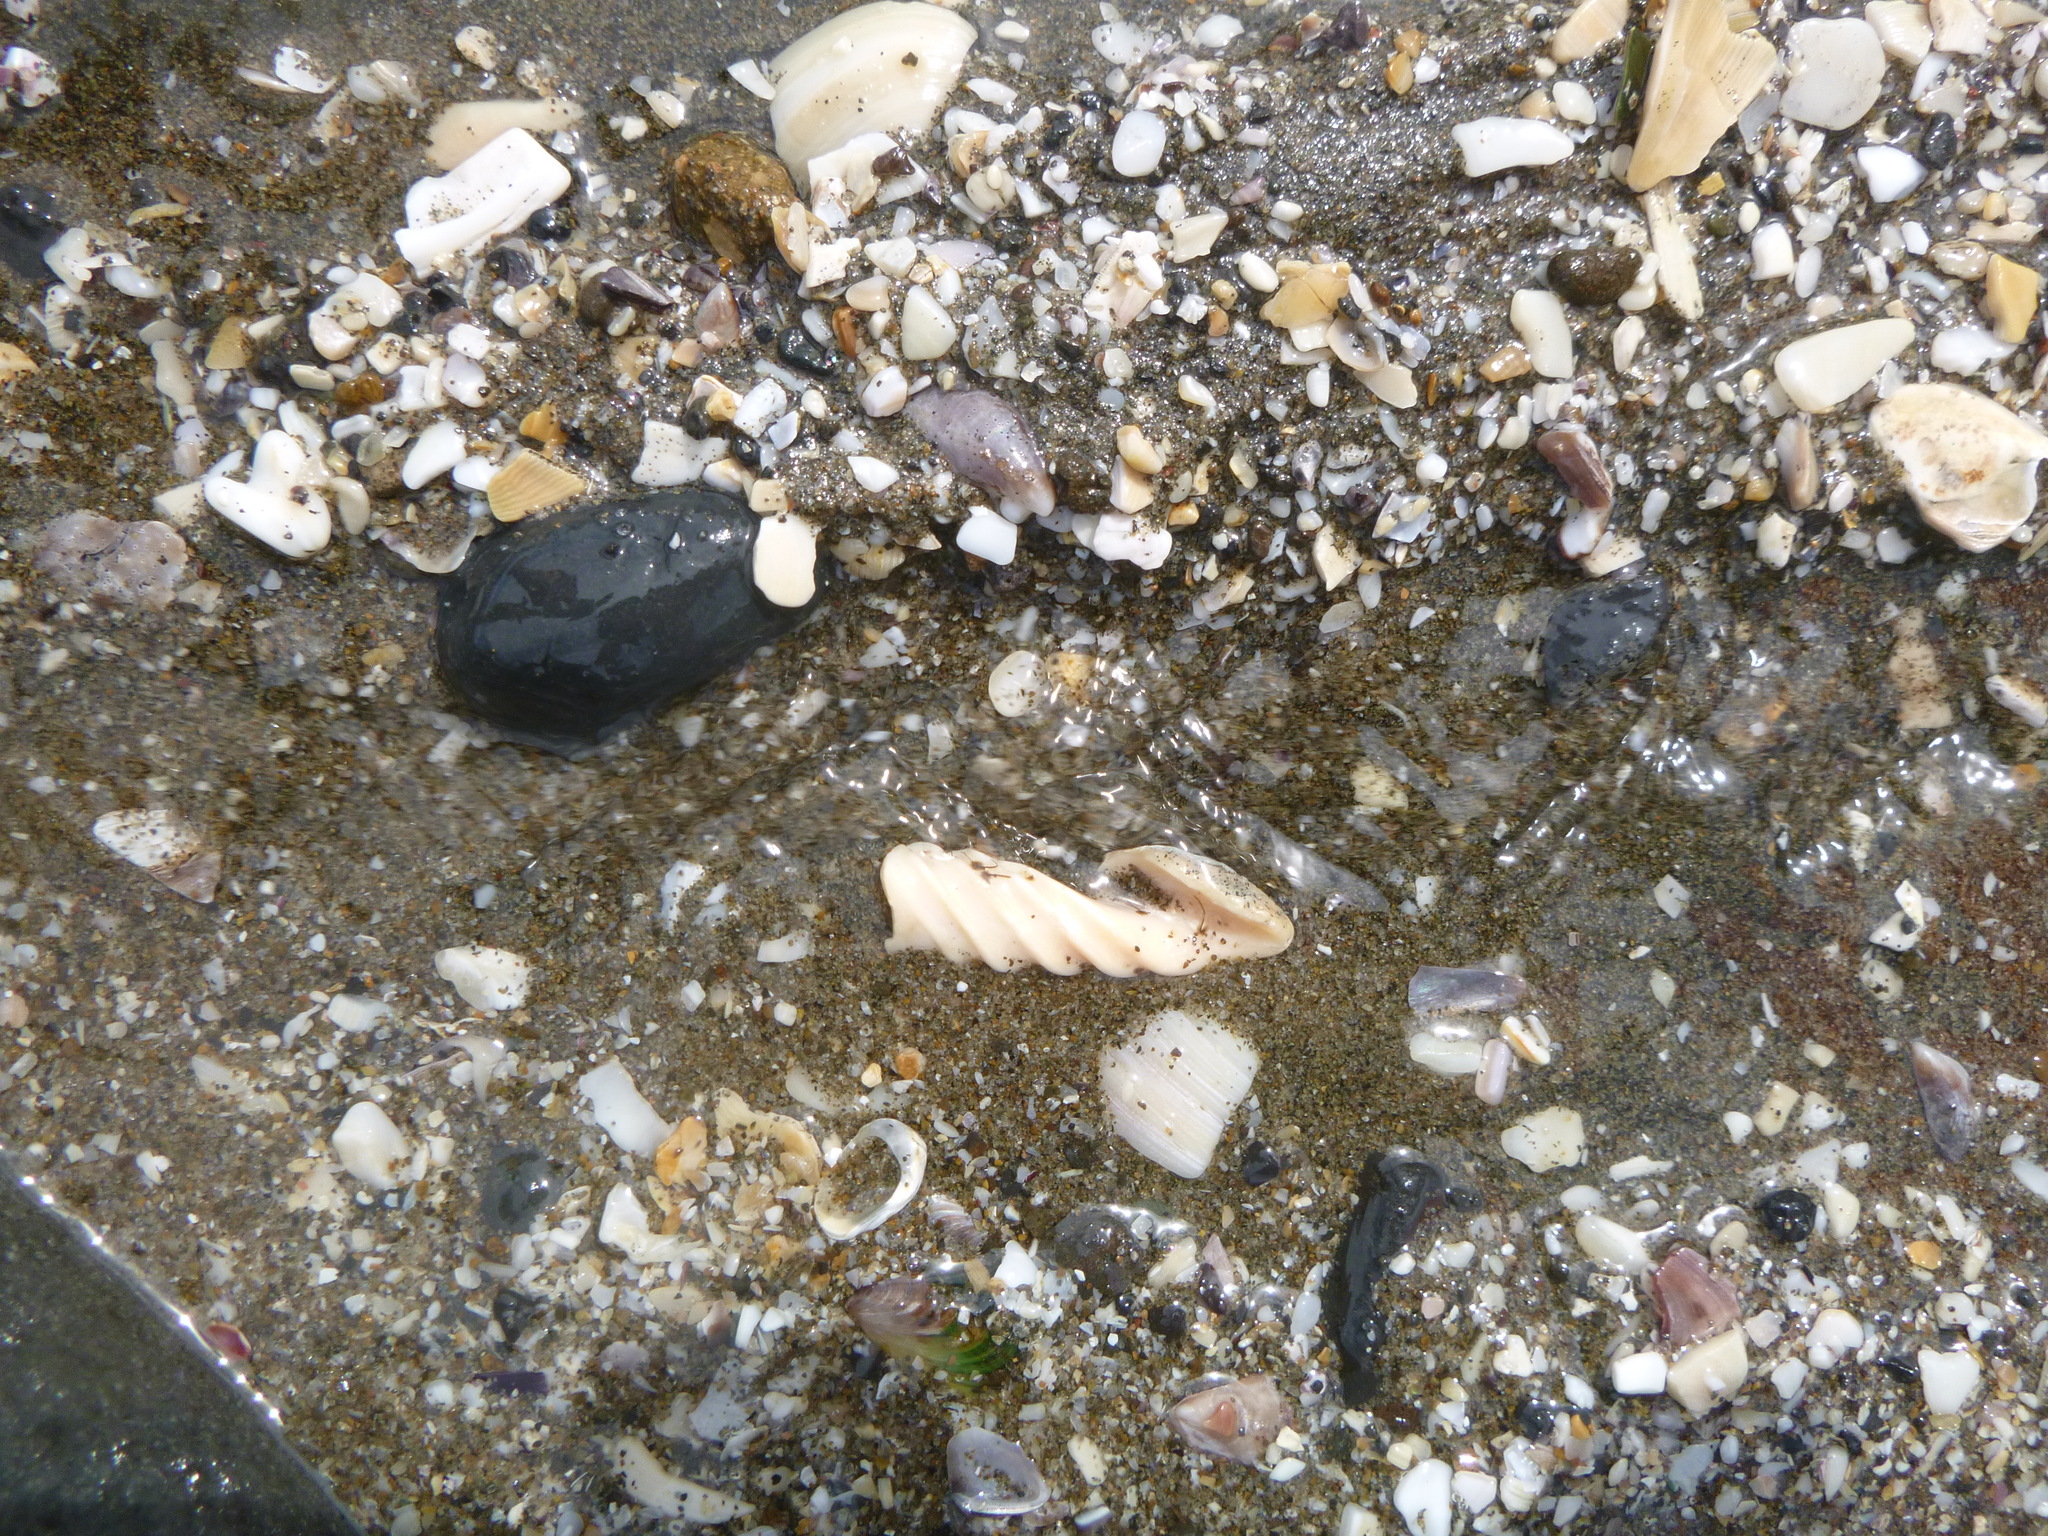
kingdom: Animalia
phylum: Mollusca
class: Gastropoda
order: Neogastropoda
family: Volutidae
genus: Alcithoe
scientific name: Alcithoe arabica
